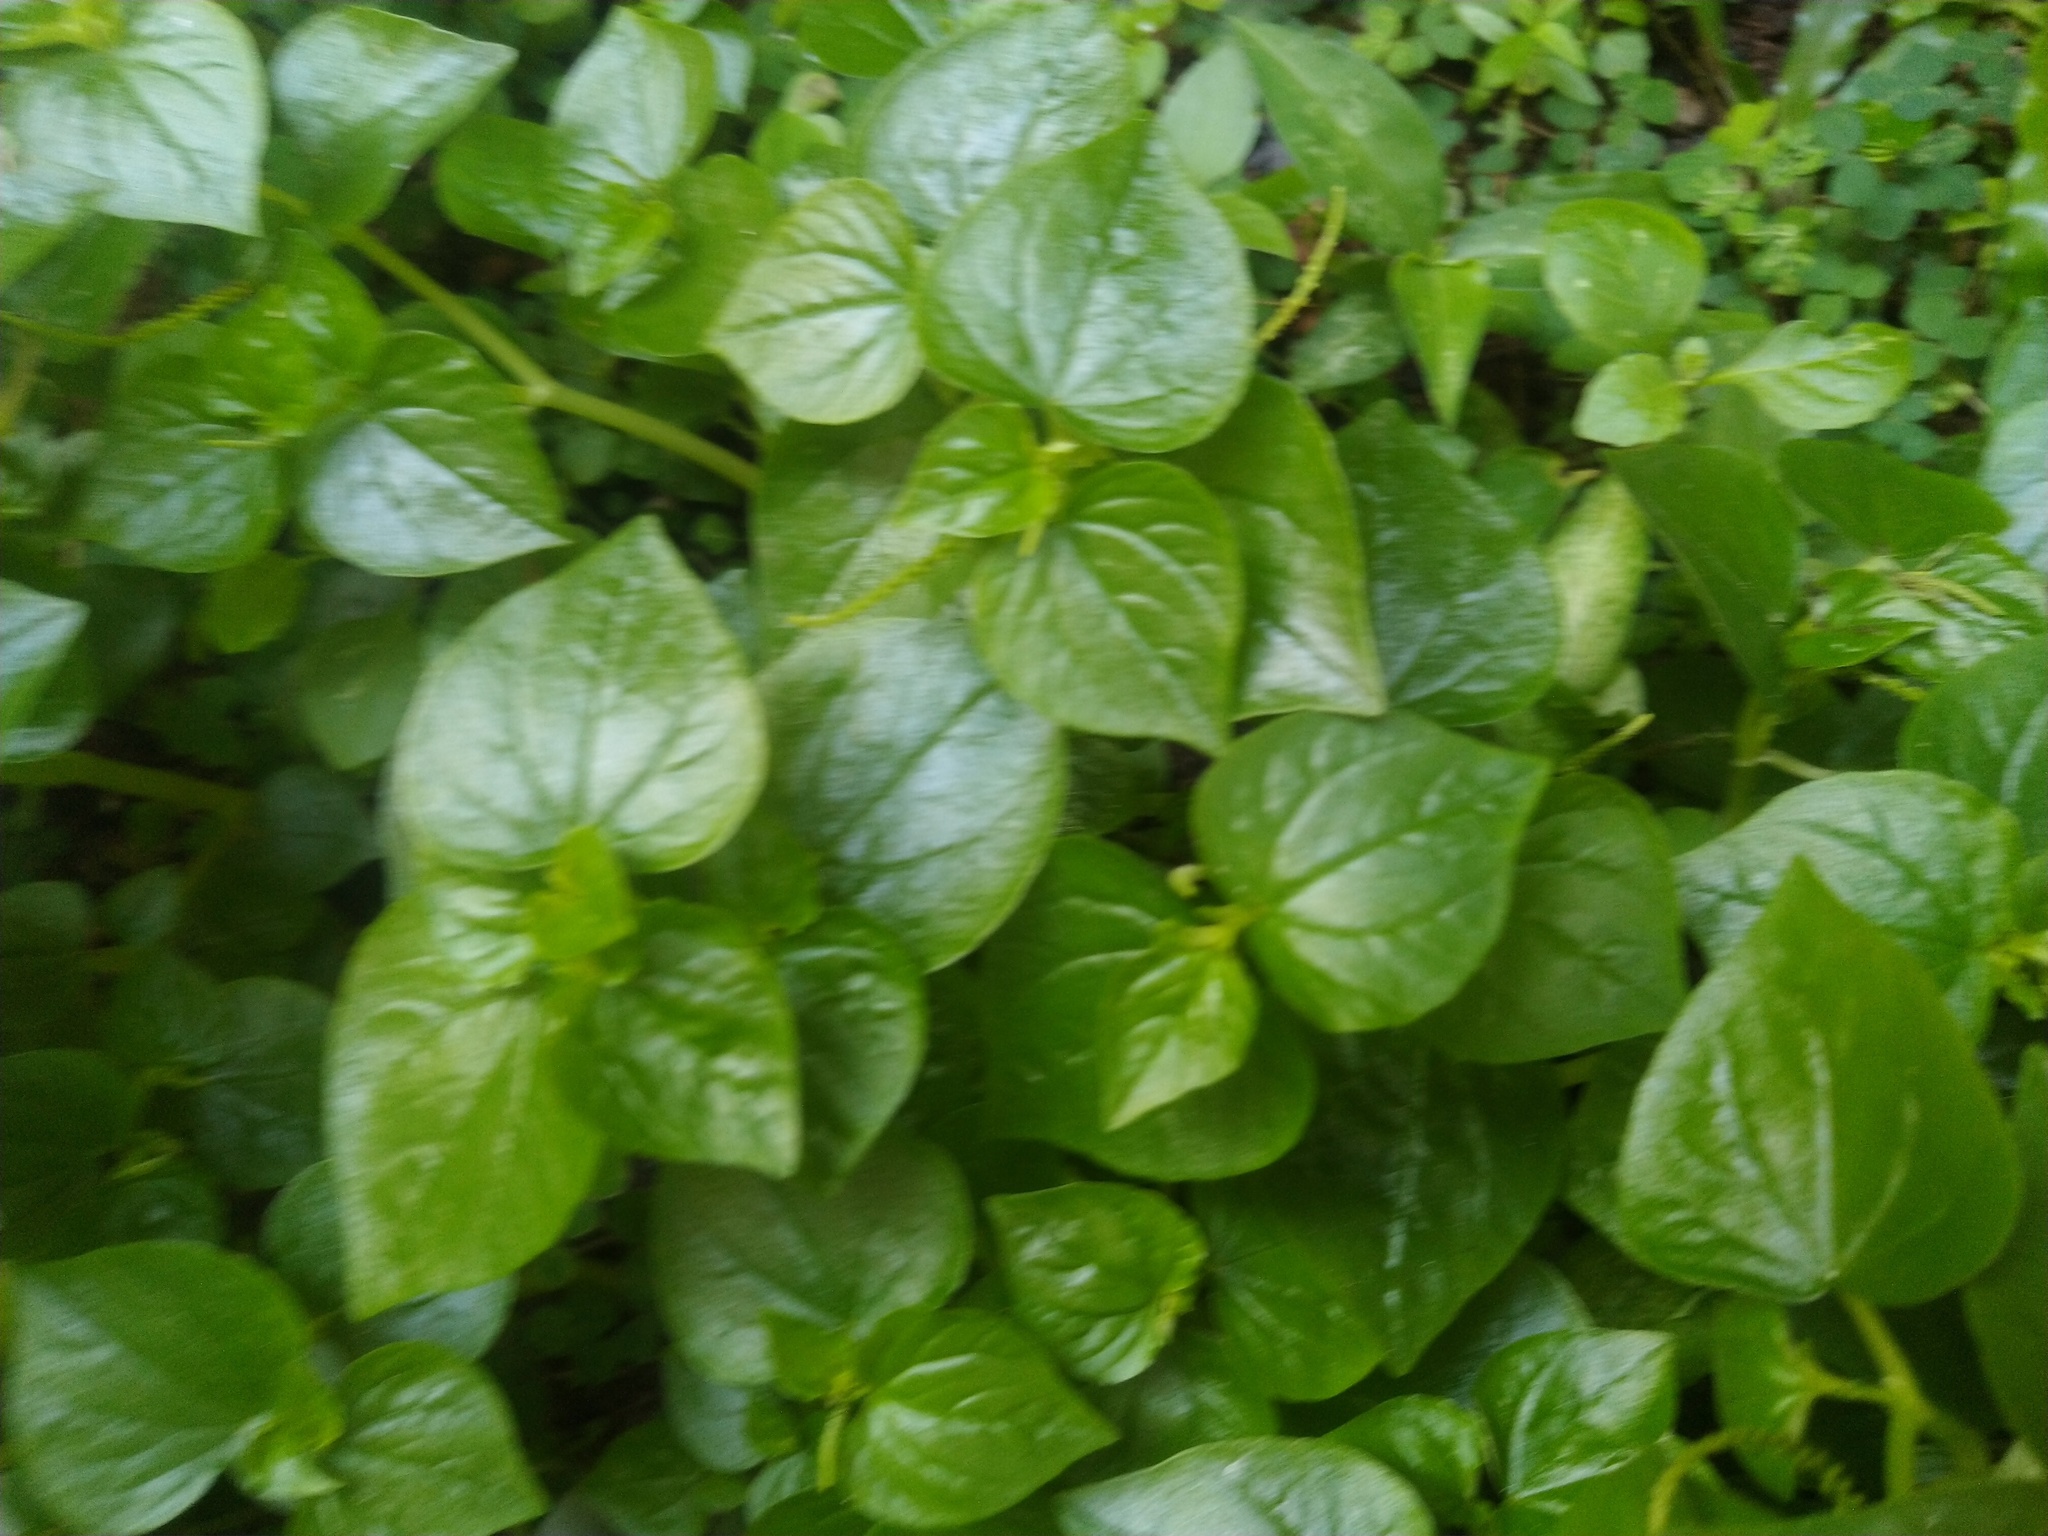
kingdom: Plantae
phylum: Tracheophyta
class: Magnoliopsida
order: Piperales
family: Piperaceae
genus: Peperomia
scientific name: Peperomia pellucida
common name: Man to man
